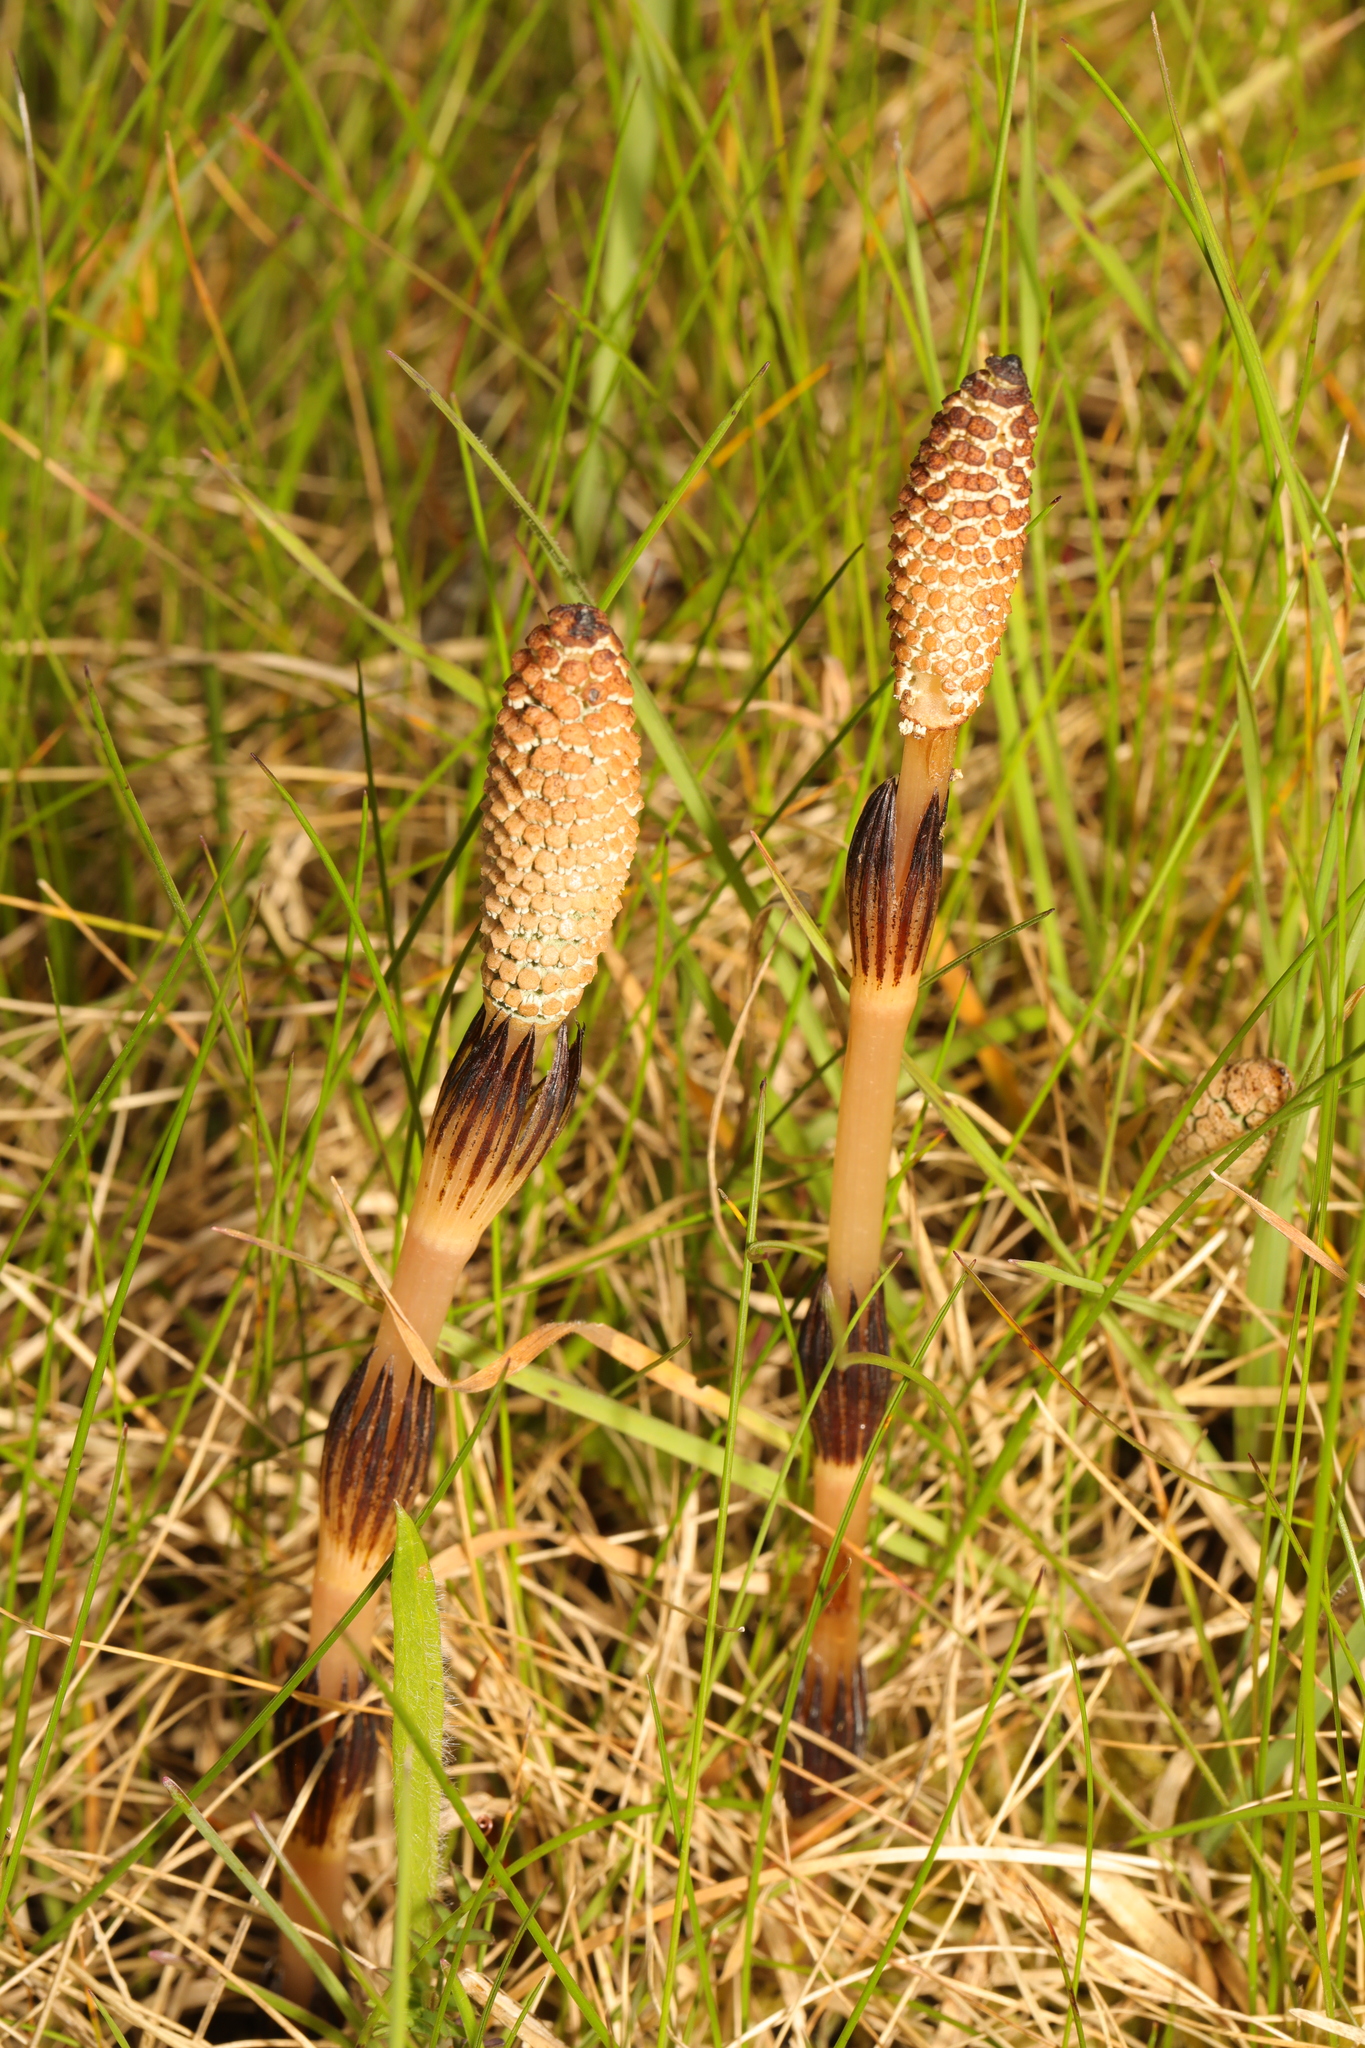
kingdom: Plantae
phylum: Tracheophyta
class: Polypodiopsida
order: Equisetales
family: Equisetaceae
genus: Equisetum
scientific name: Equisetum arvense
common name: Field horsetail
